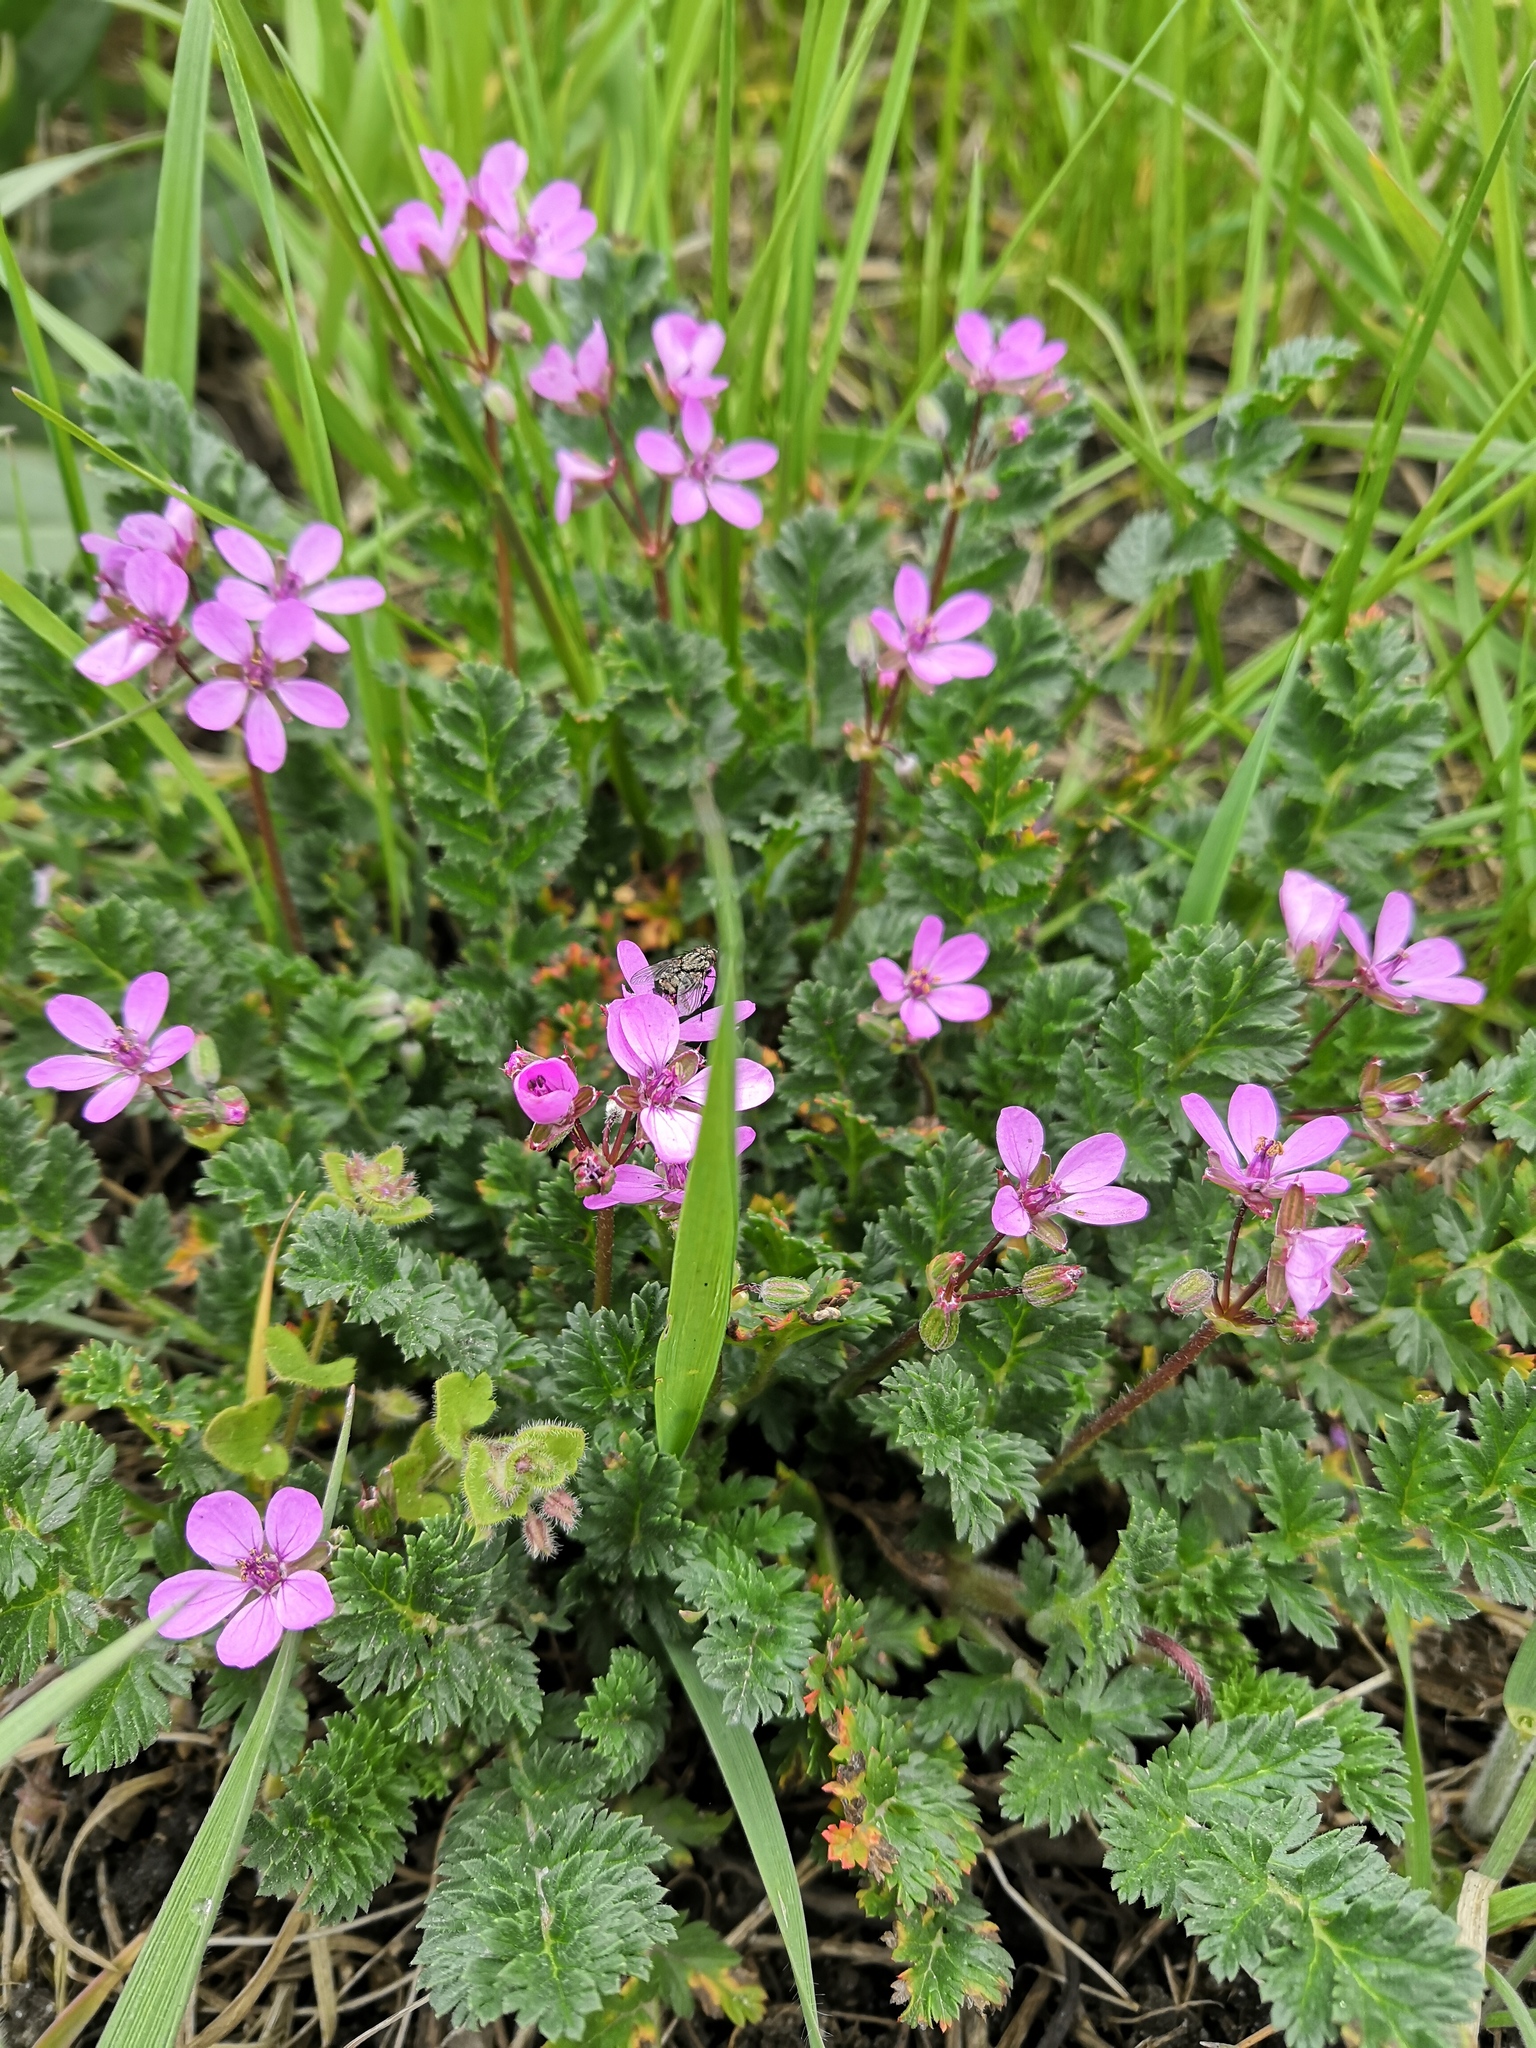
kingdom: Plantae
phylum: Tracheophyta
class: Magnoliopsida
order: Geraniales
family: Geraniaceae
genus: Erodium
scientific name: Erodium cicutarium
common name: Common stork's-bill
